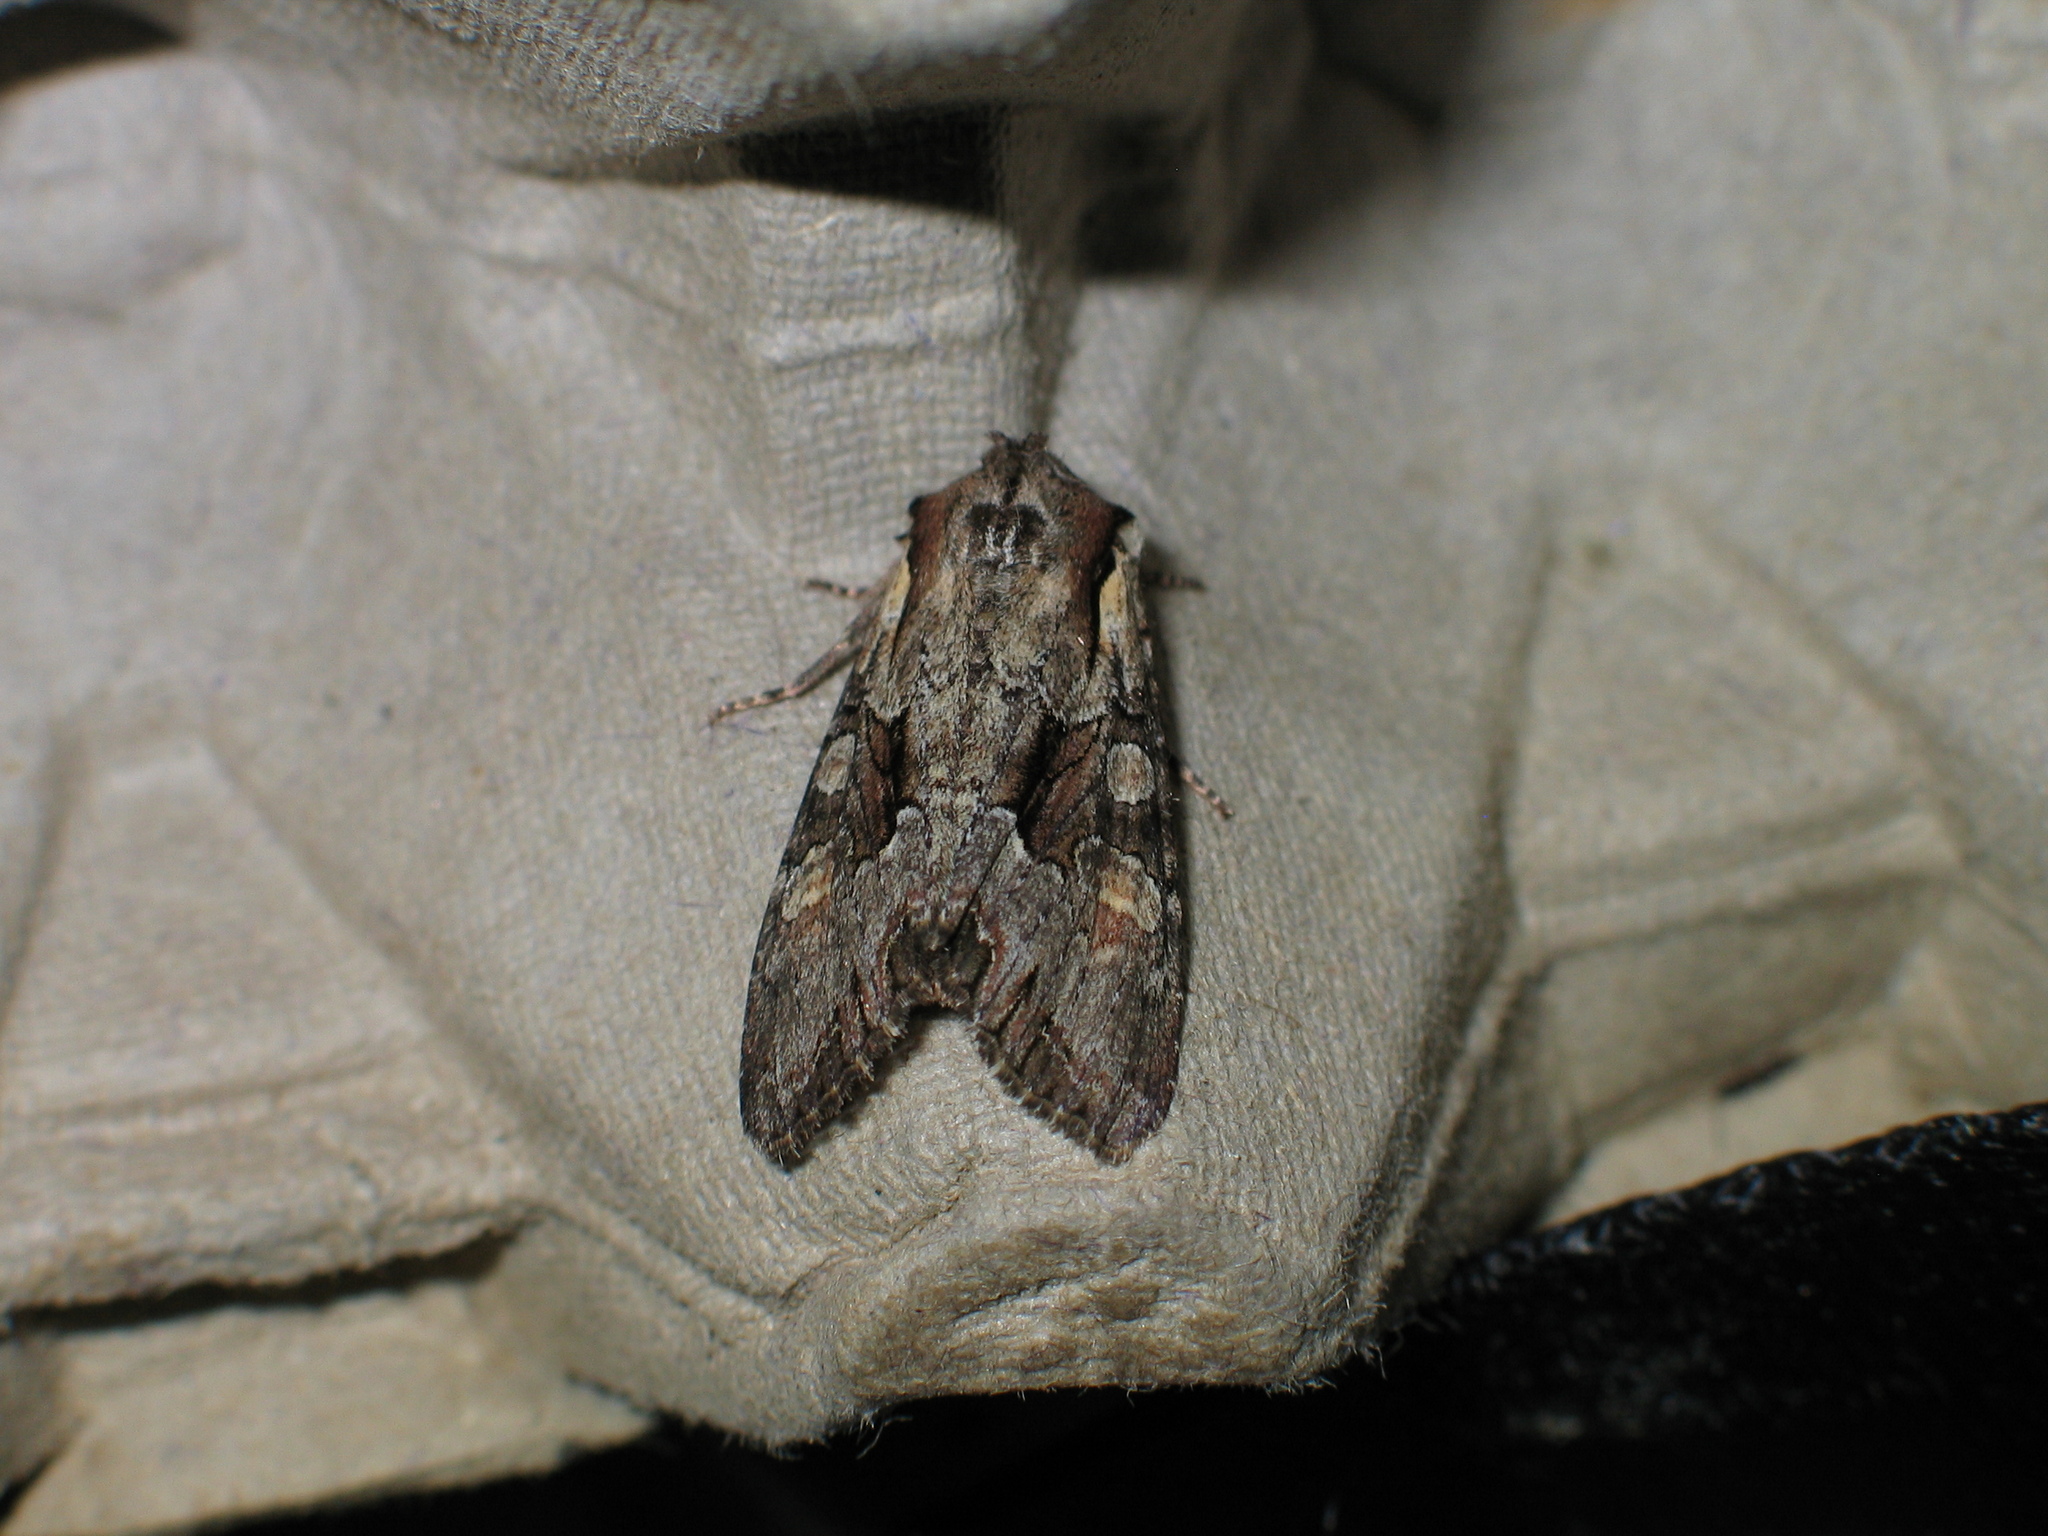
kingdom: Animalia
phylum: Arthropoda
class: Insecta
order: Lepidoptera
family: Noctuidae
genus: Lacanobia
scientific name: Lacanobia w-latinum
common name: Light brocade
